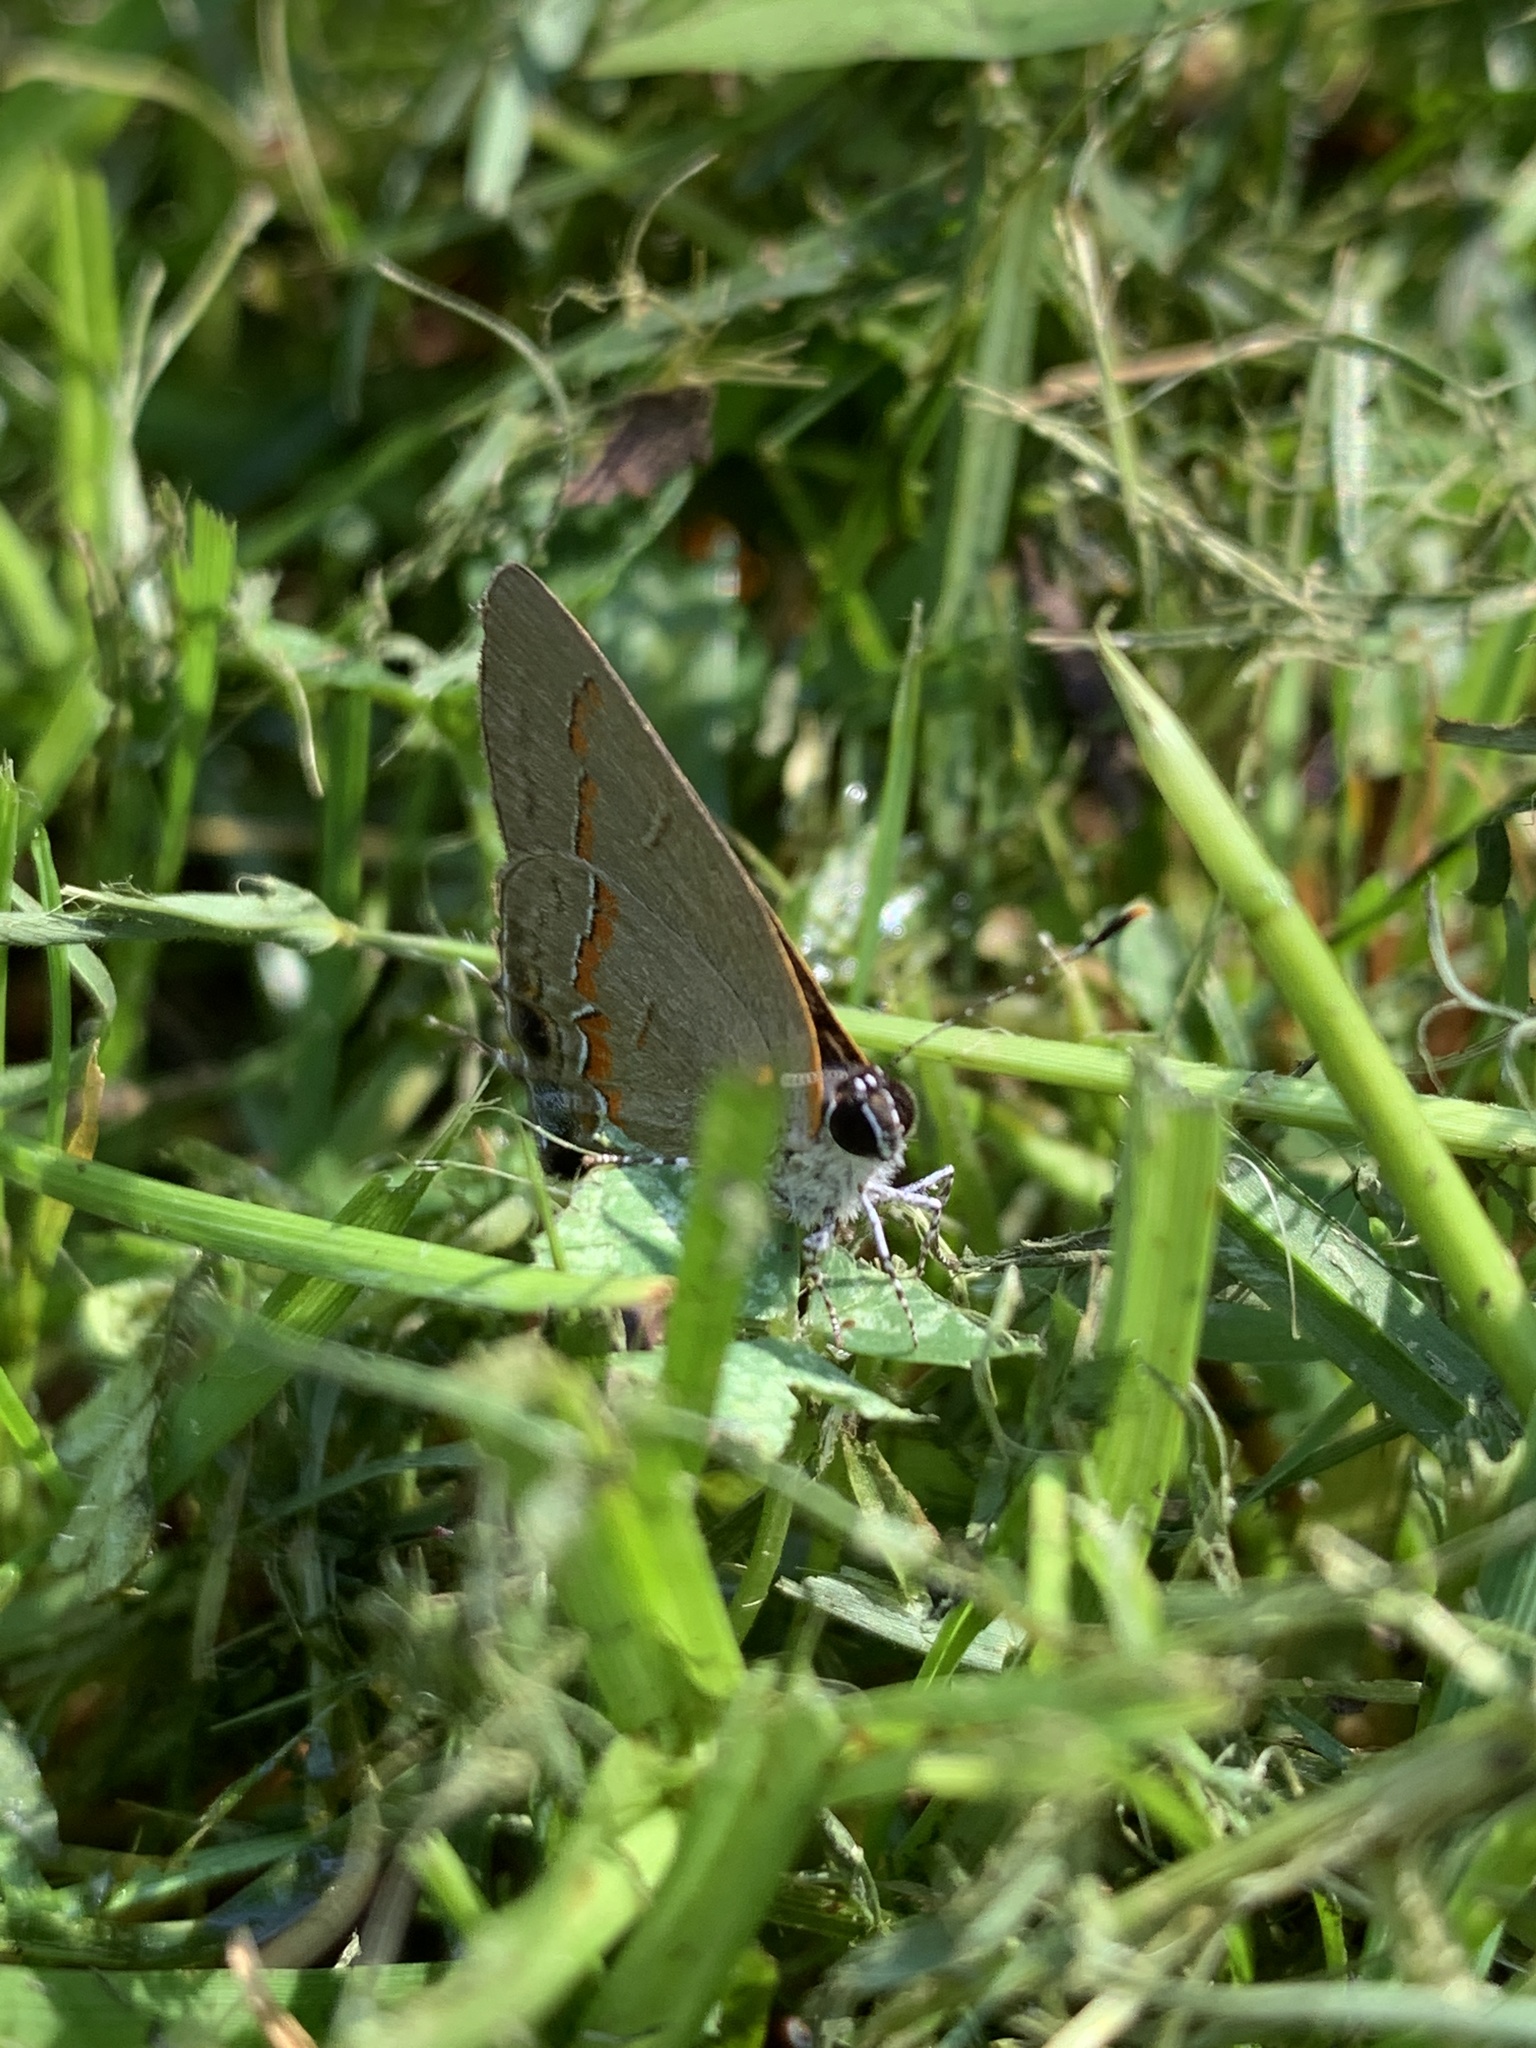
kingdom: Animalia
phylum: Arthropoda
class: Insecta
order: Lepidoptera
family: Lycaenidae
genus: Calycopis
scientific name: Calycopis cecrops
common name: Red-banded hairstreak
